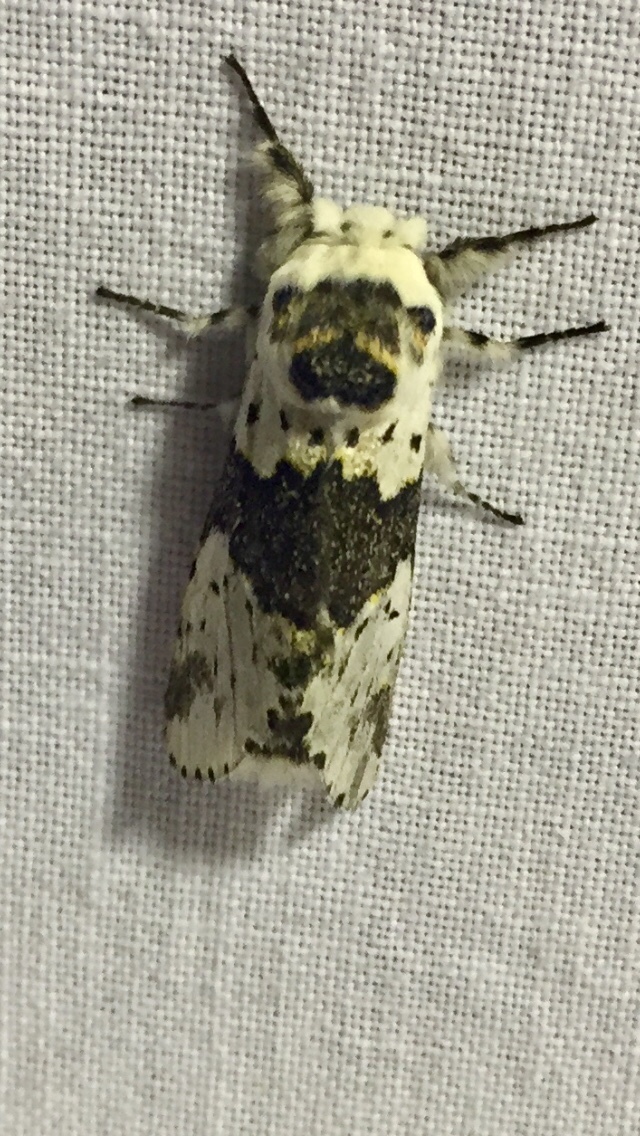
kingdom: Animalia
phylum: Arthropoda
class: Insecta
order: Lepidoptera
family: Notodontidae
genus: Furcula
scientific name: Furcula borealis
